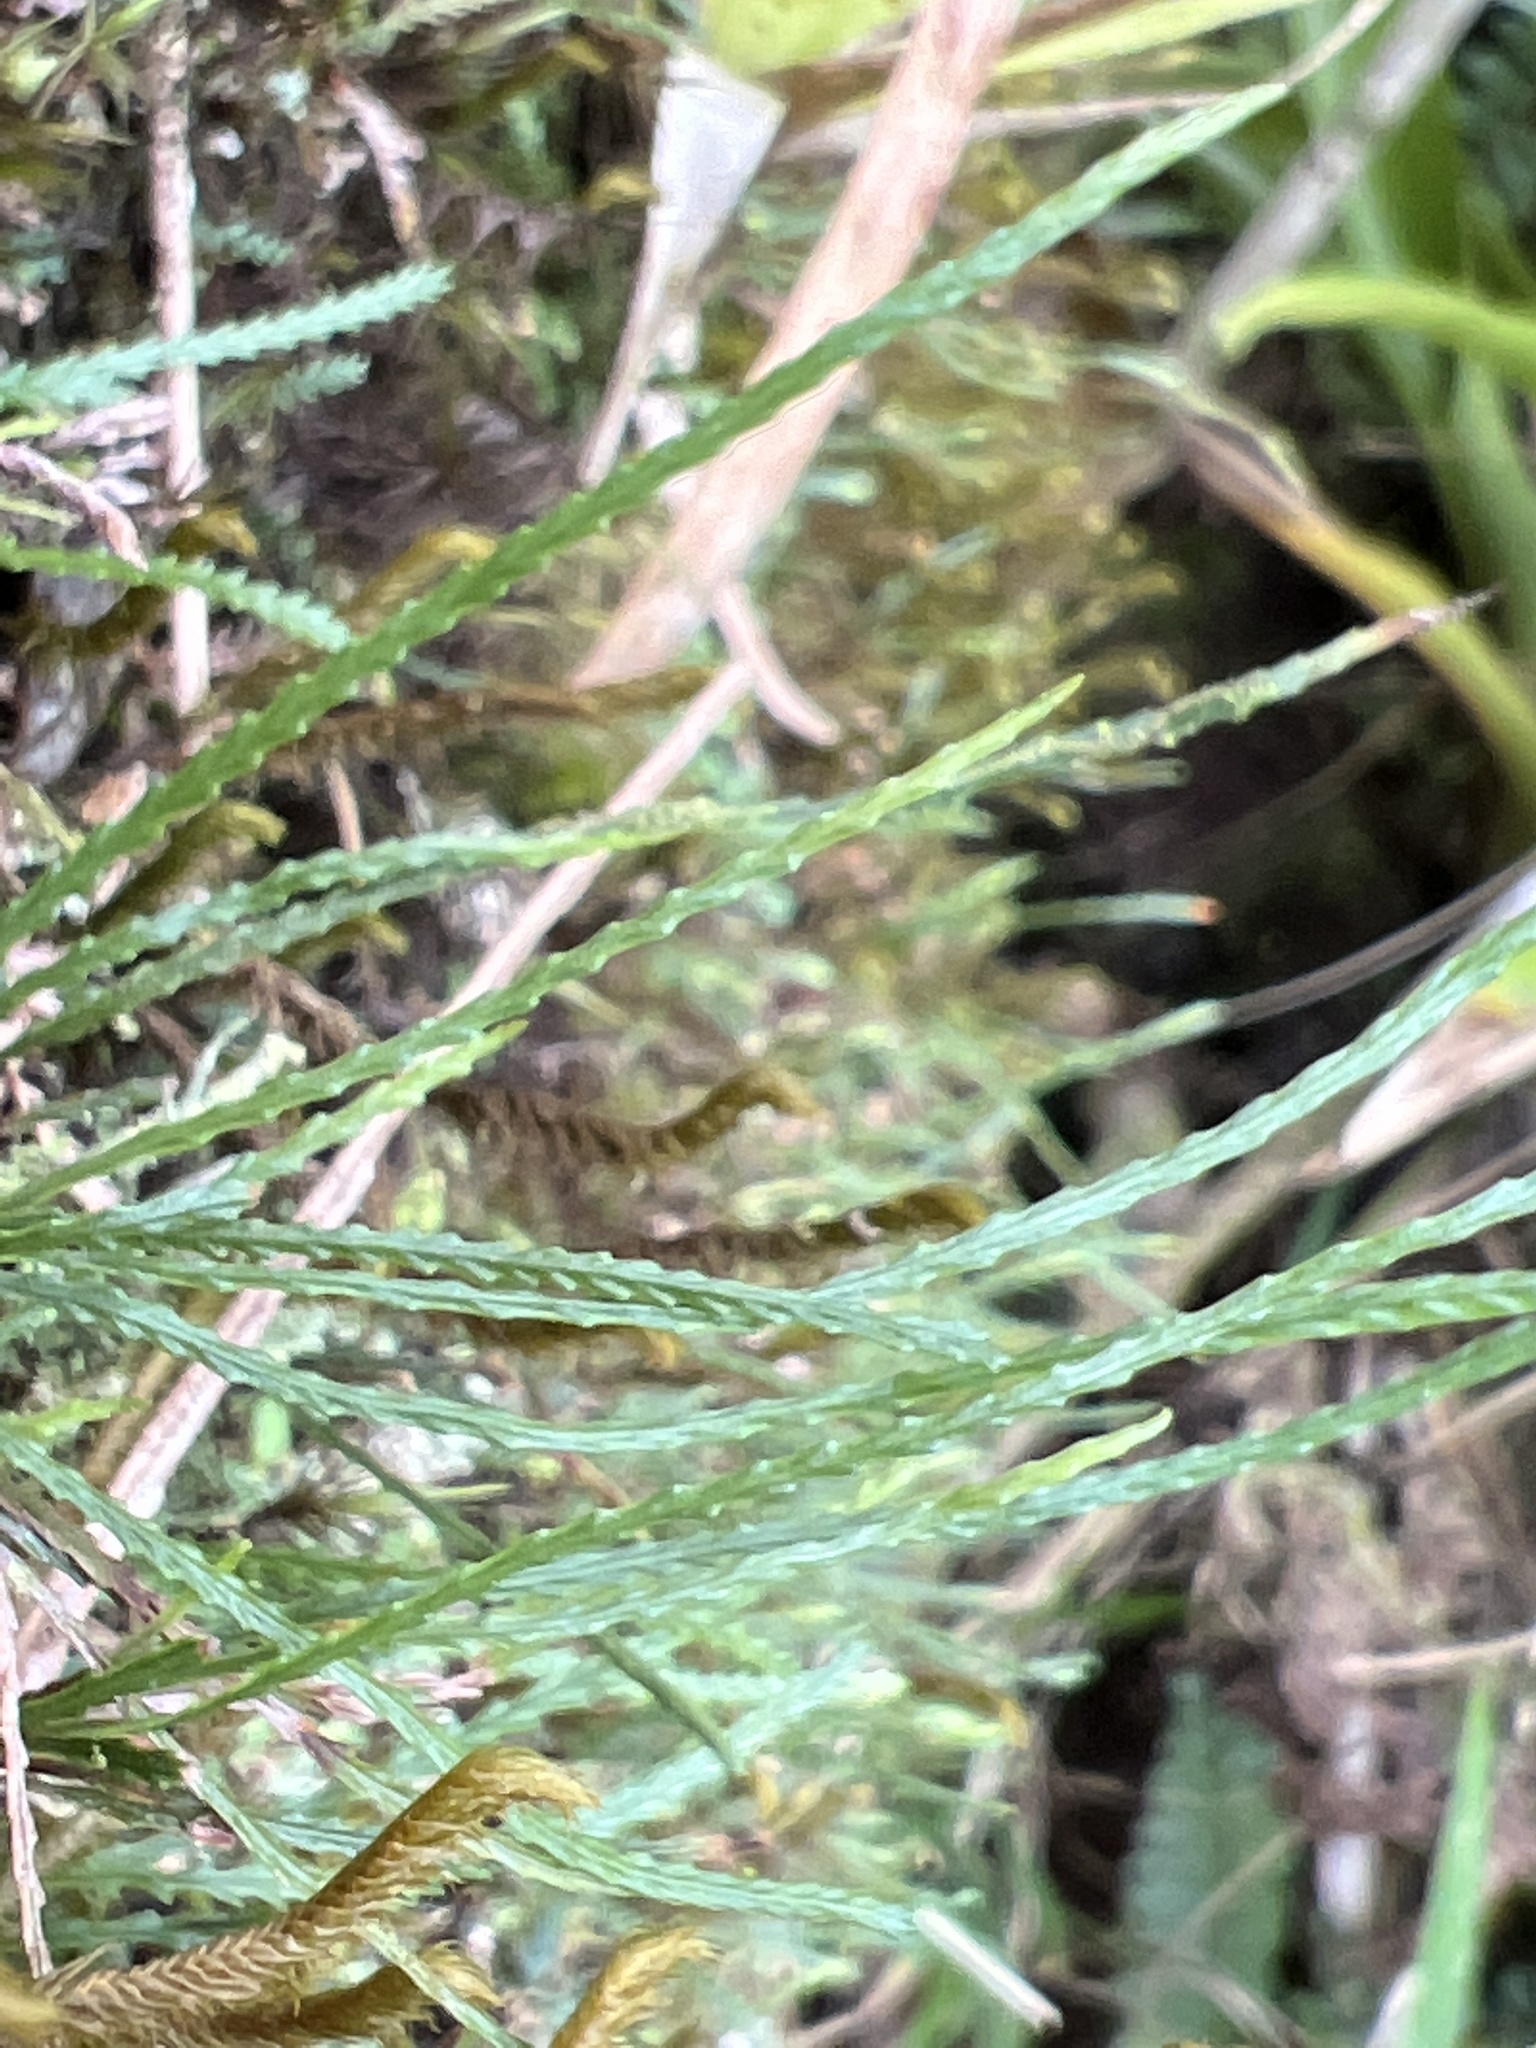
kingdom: Plantae
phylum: Tracheophyta
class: Polypodiopsida
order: Polypodiales
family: Polypodiaceae
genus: Cochlidium
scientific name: Cochlidium serrulatum
